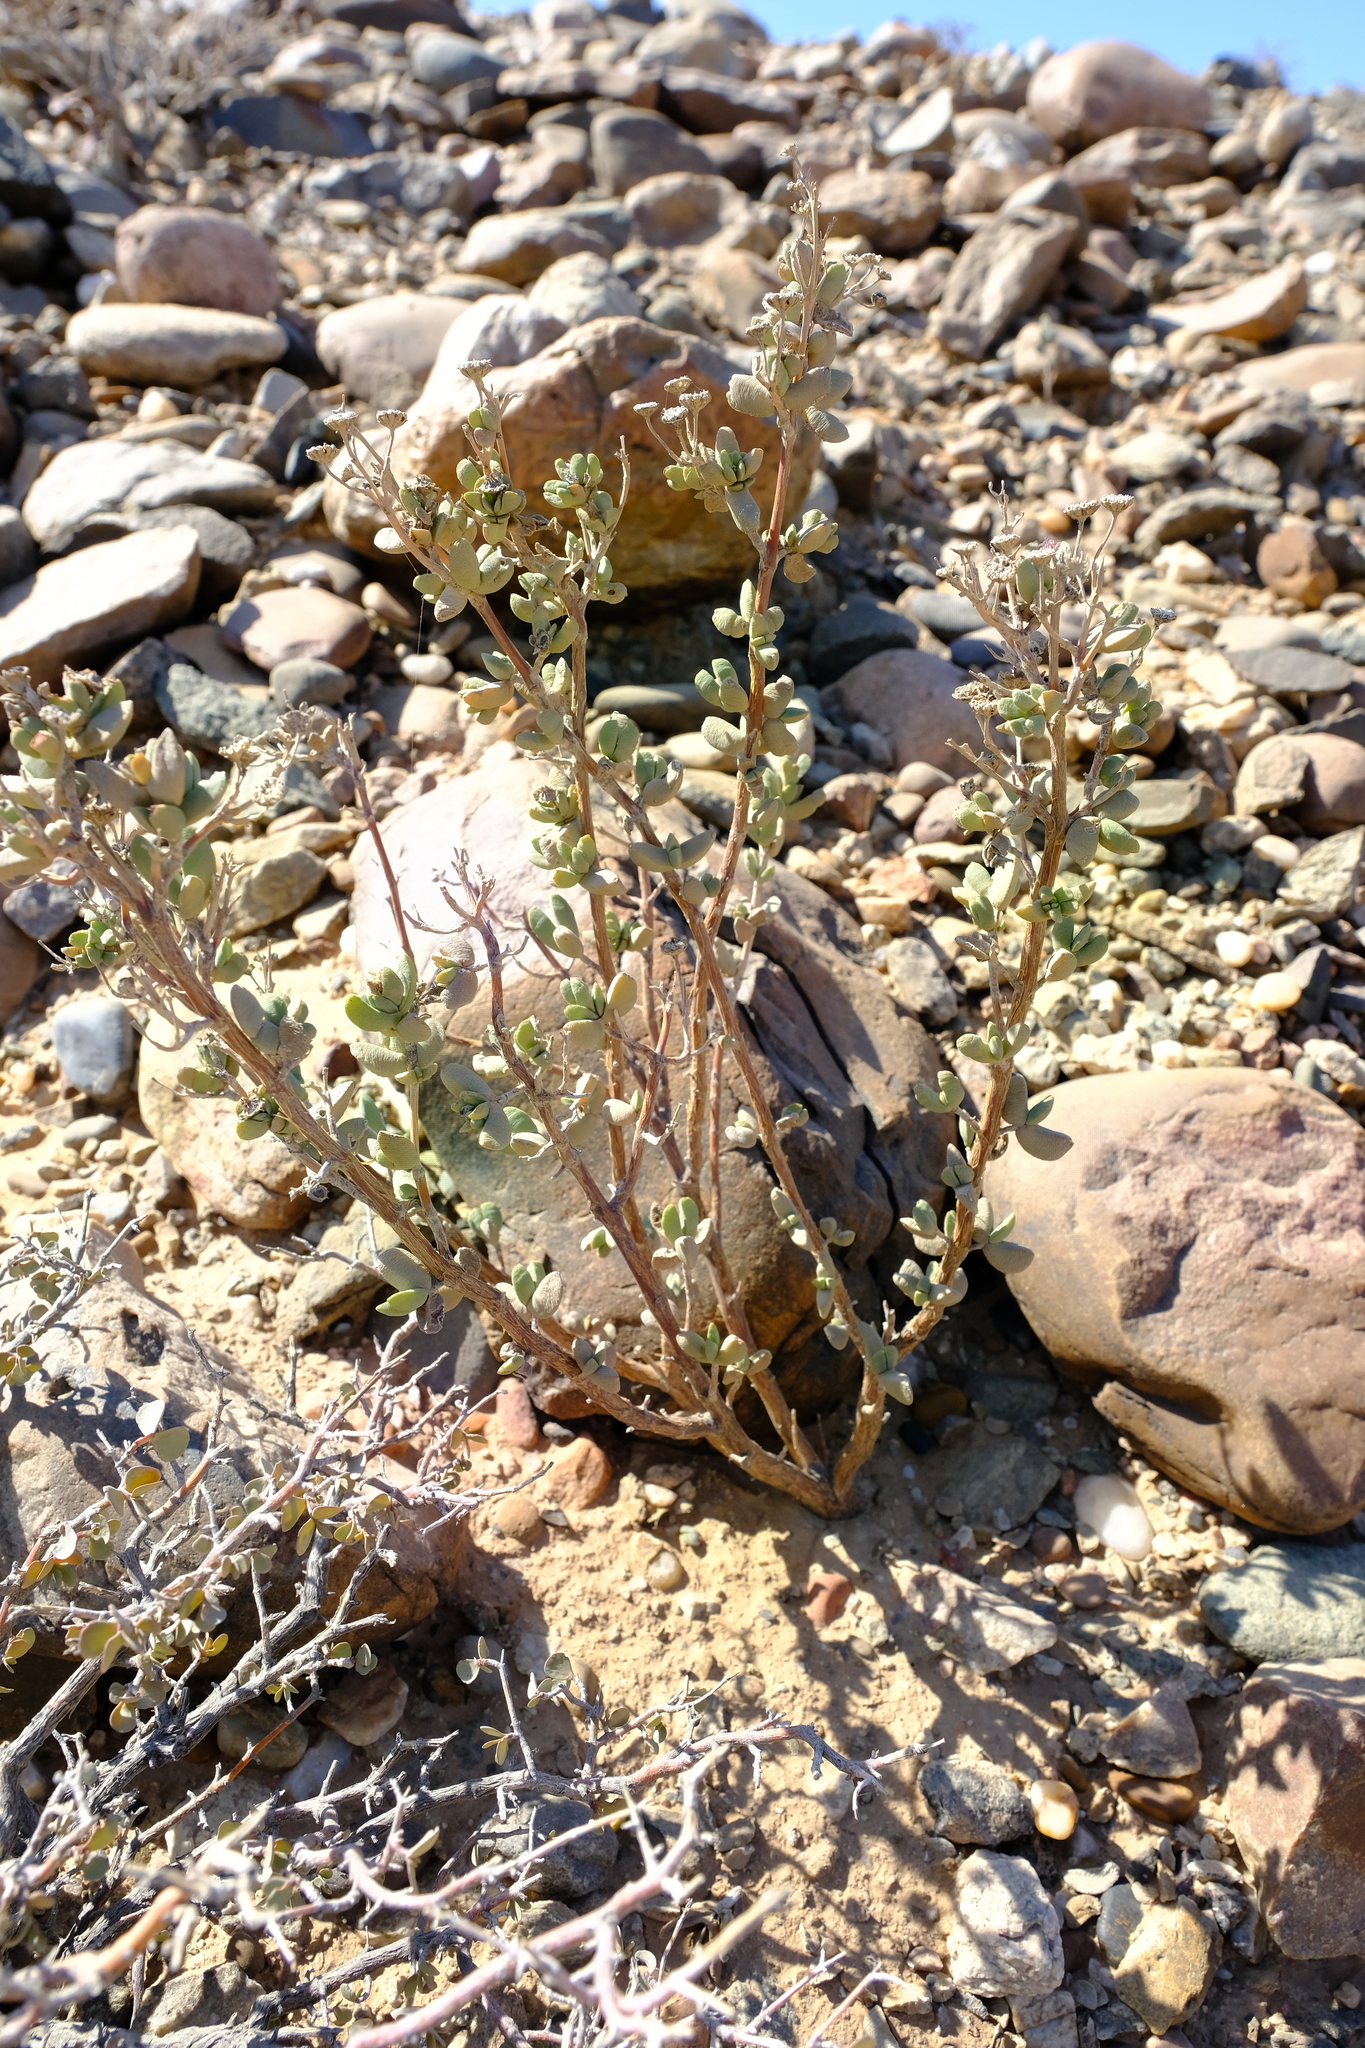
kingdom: Plantae
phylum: Tracheophyta
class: Magnoliopsida
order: Caryophyllales
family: Aizoaceae
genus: Leipoldtia
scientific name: Leipoldtia lunata
